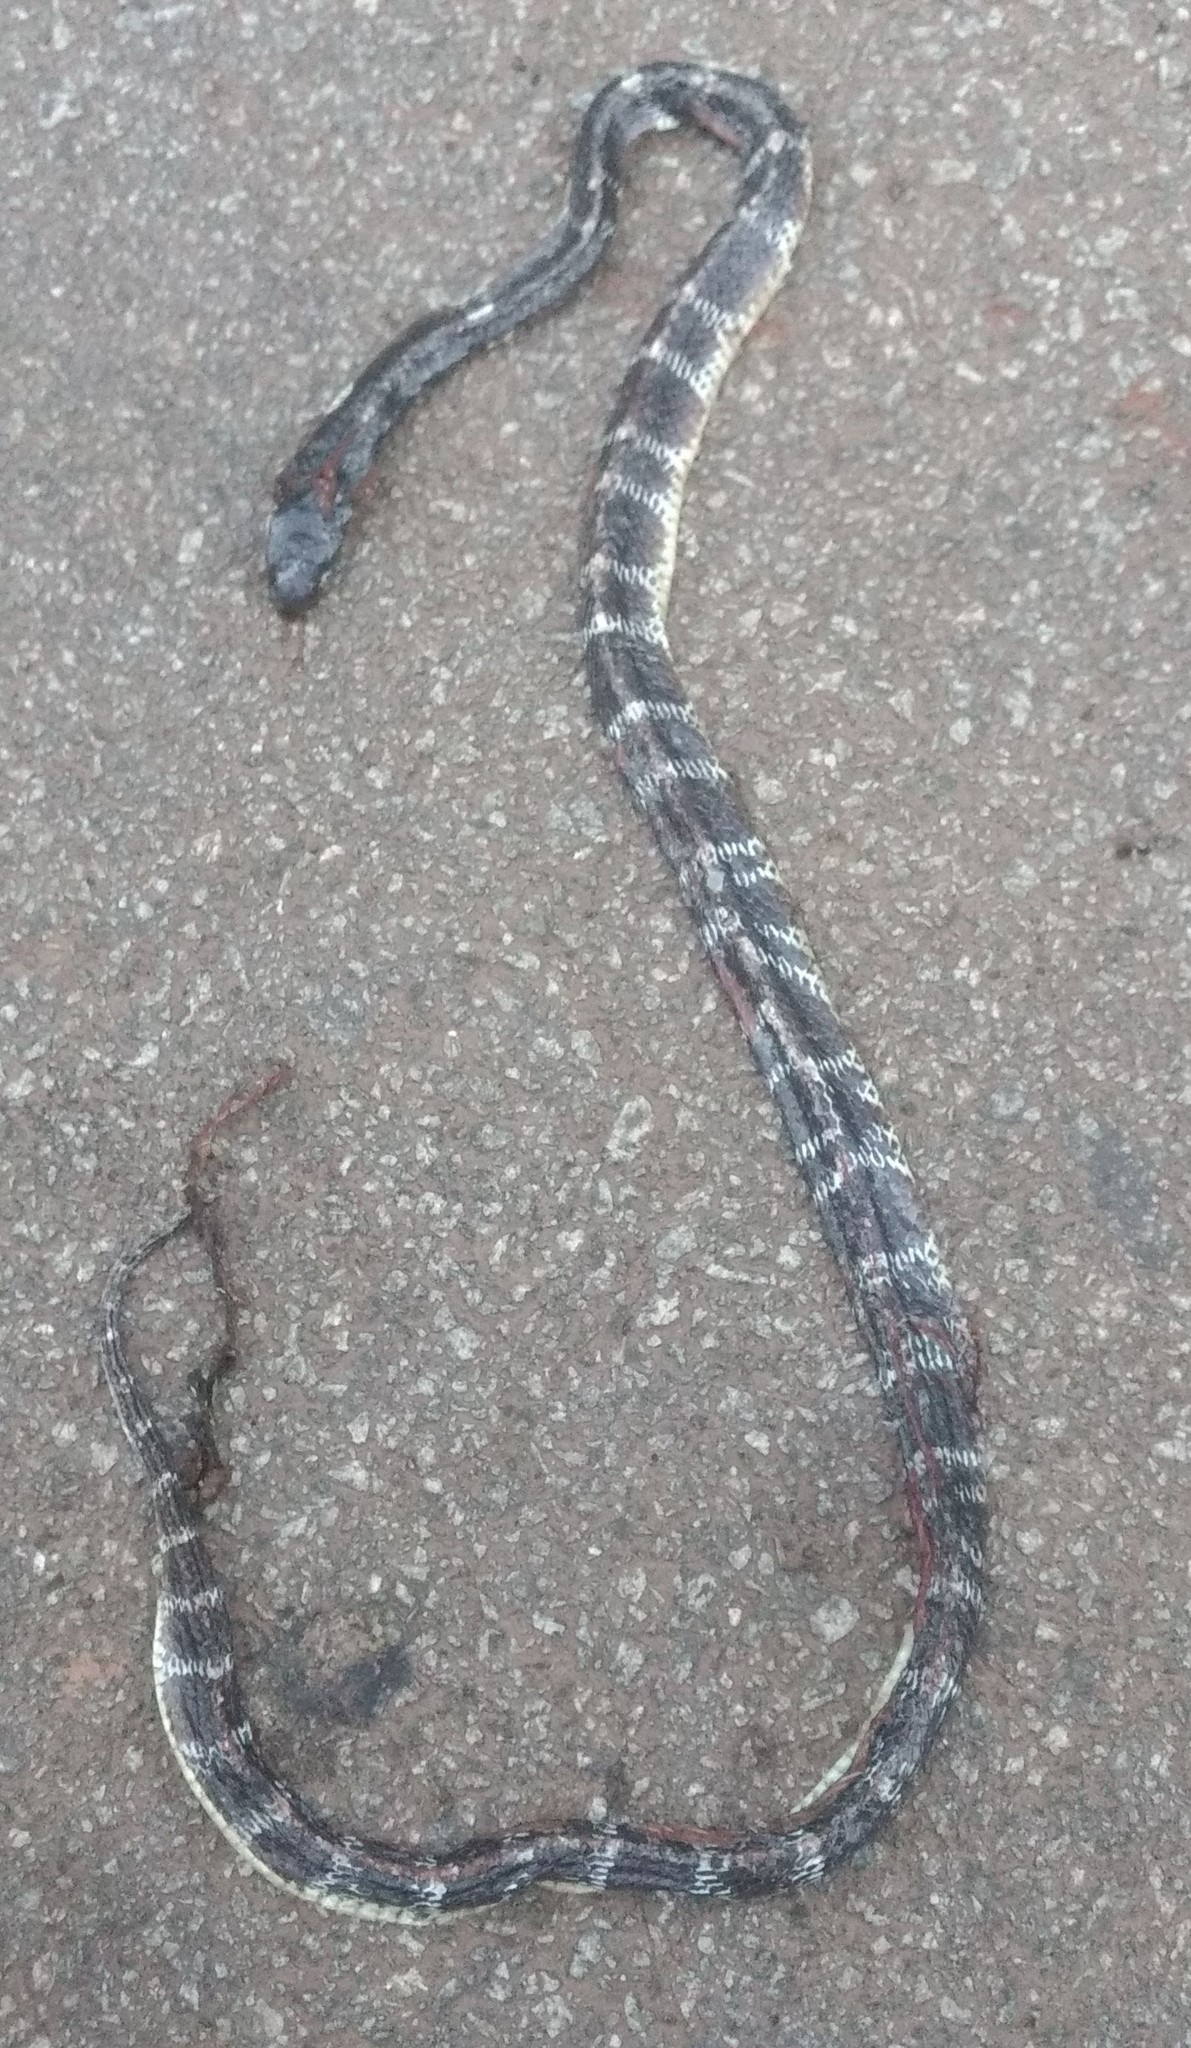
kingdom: Animalia
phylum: Chordata
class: Squamata
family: Elapidae
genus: Bungarus
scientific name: Bungarus caeruleus
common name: Common krait
